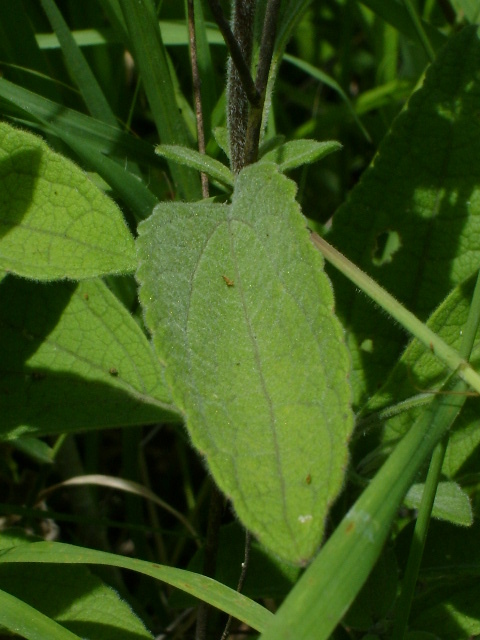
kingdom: Plantae
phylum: Tracheophyta
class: Magnoliopsida
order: Asterales
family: Asteraceae
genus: Conoclinium
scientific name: Conoclinium betonicifolium
